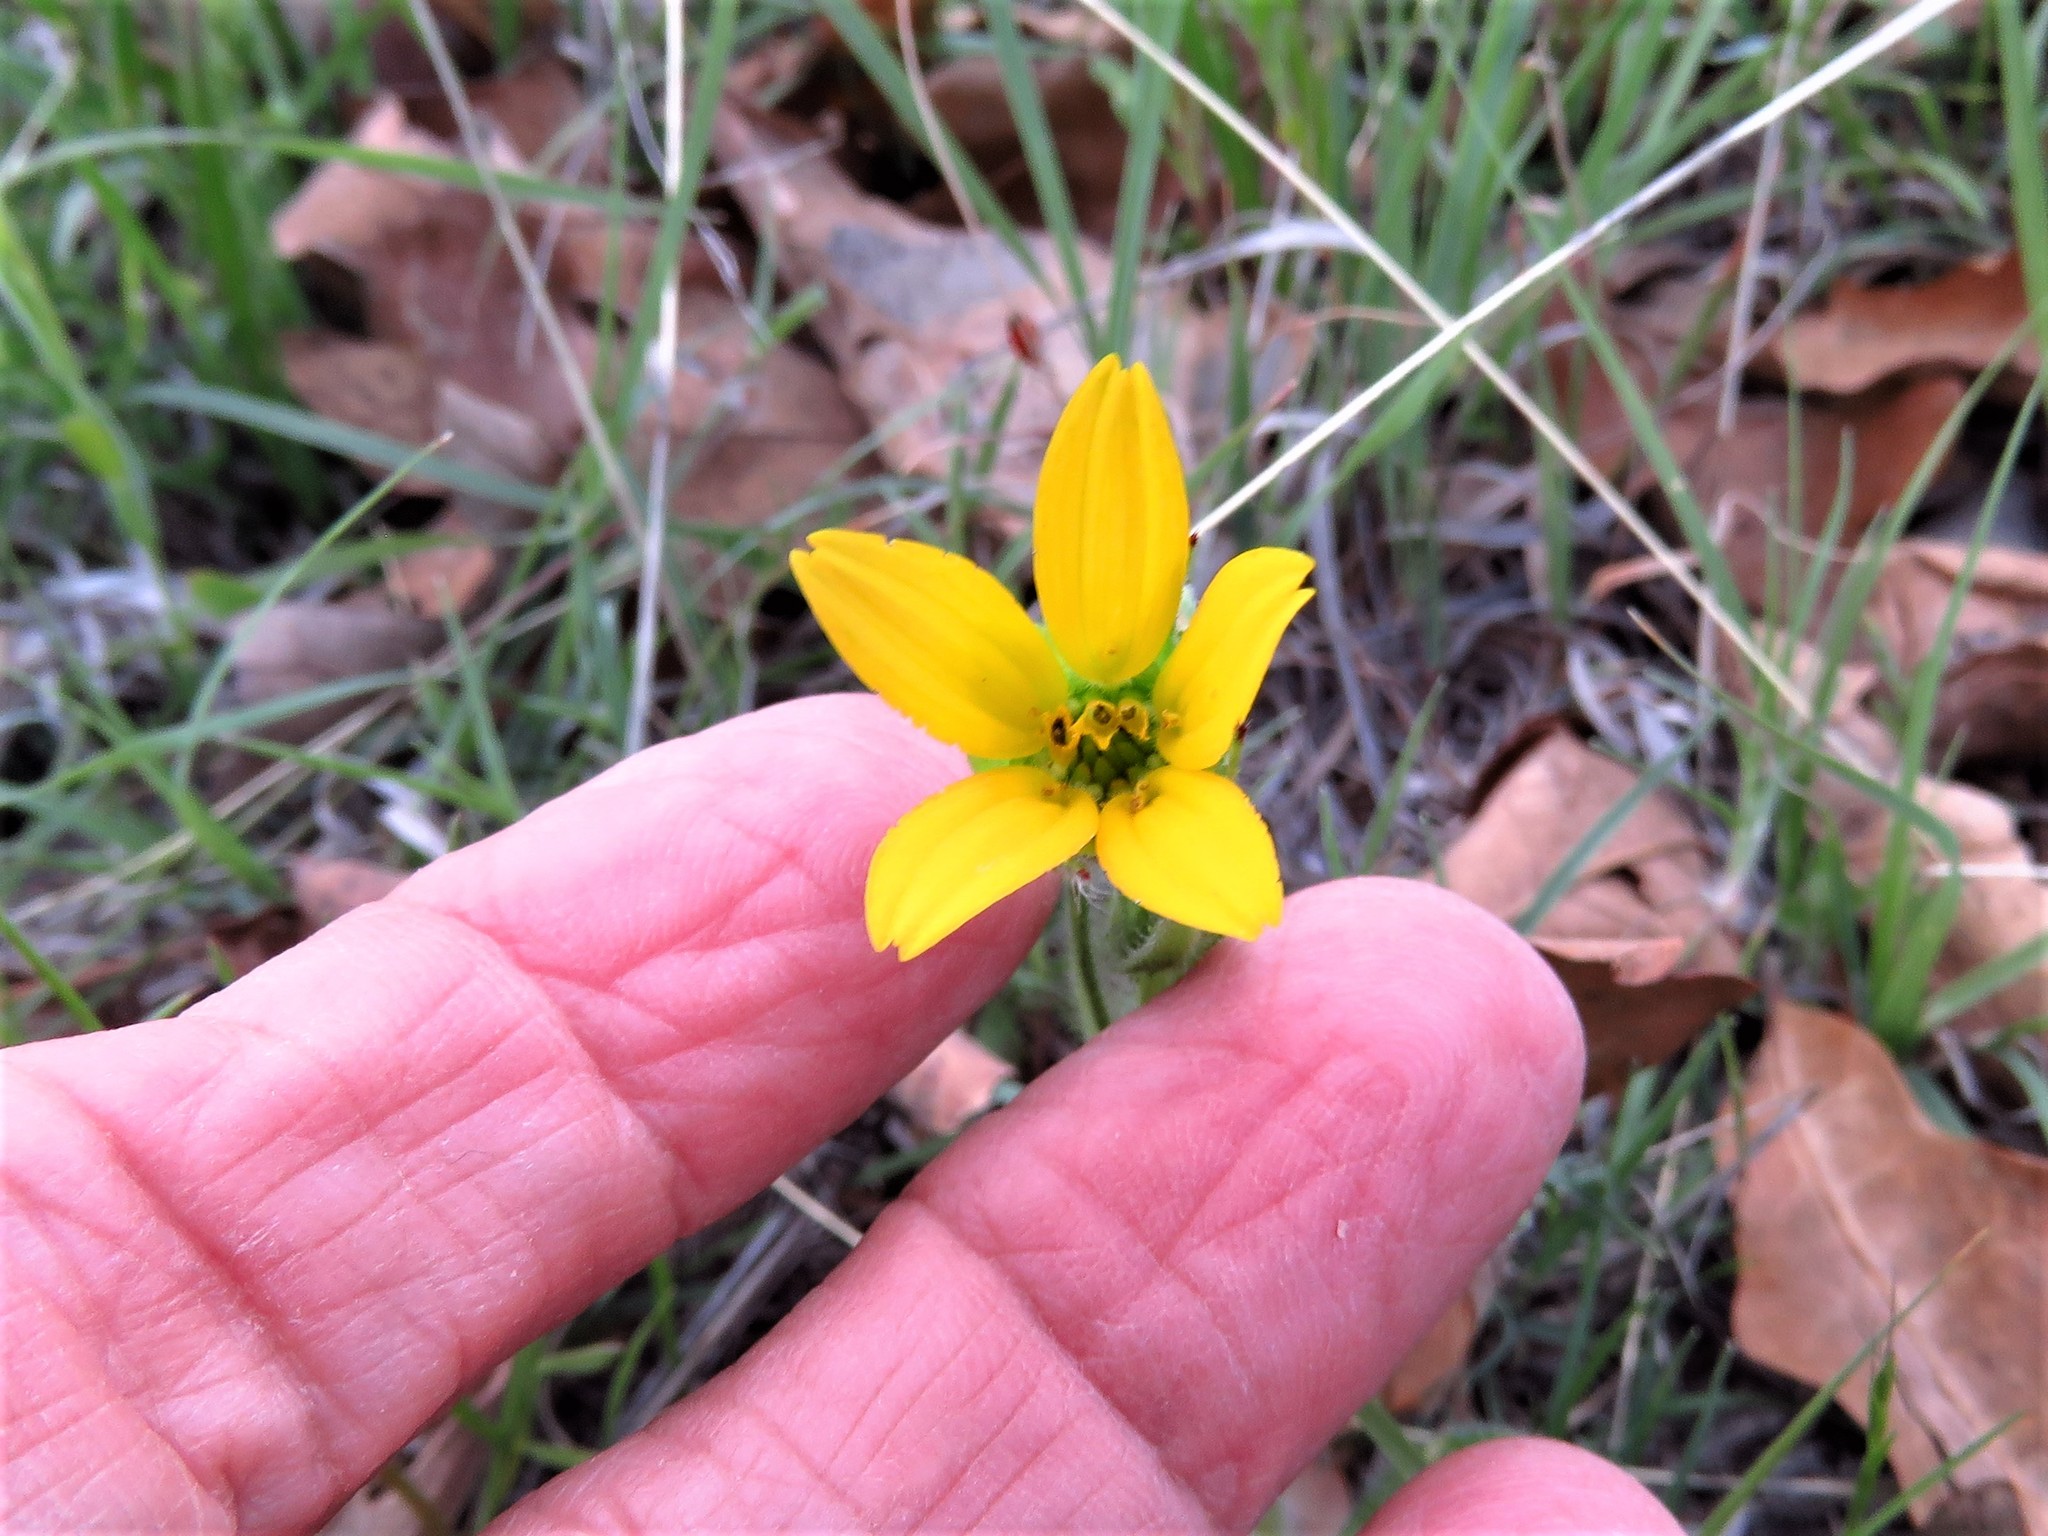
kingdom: Plantae
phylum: Tracheophyta
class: Magnoliopsida
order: Asterales
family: Asteraceae
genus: Lindheimera
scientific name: Lindheimera texana
